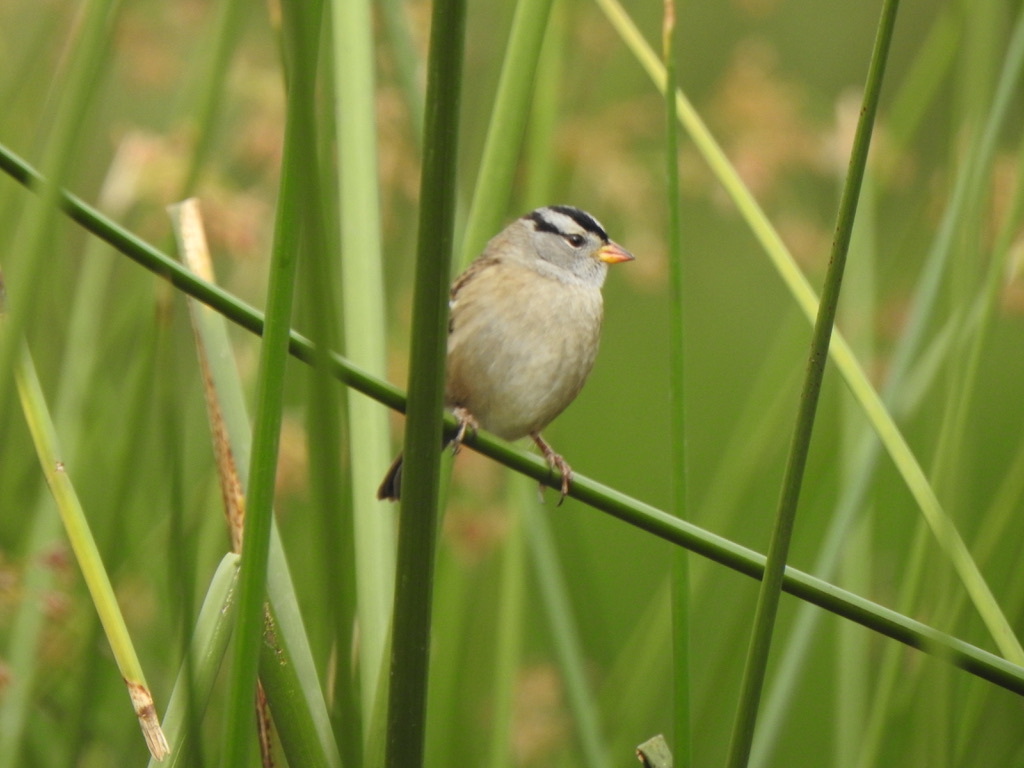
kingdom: Animalia
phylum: Chordata
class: Aves
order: Passeriformes
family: Passerellidae
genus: Zonotrichia
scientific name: Zonotrichia leucophrys
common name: White-crowned sparrow
